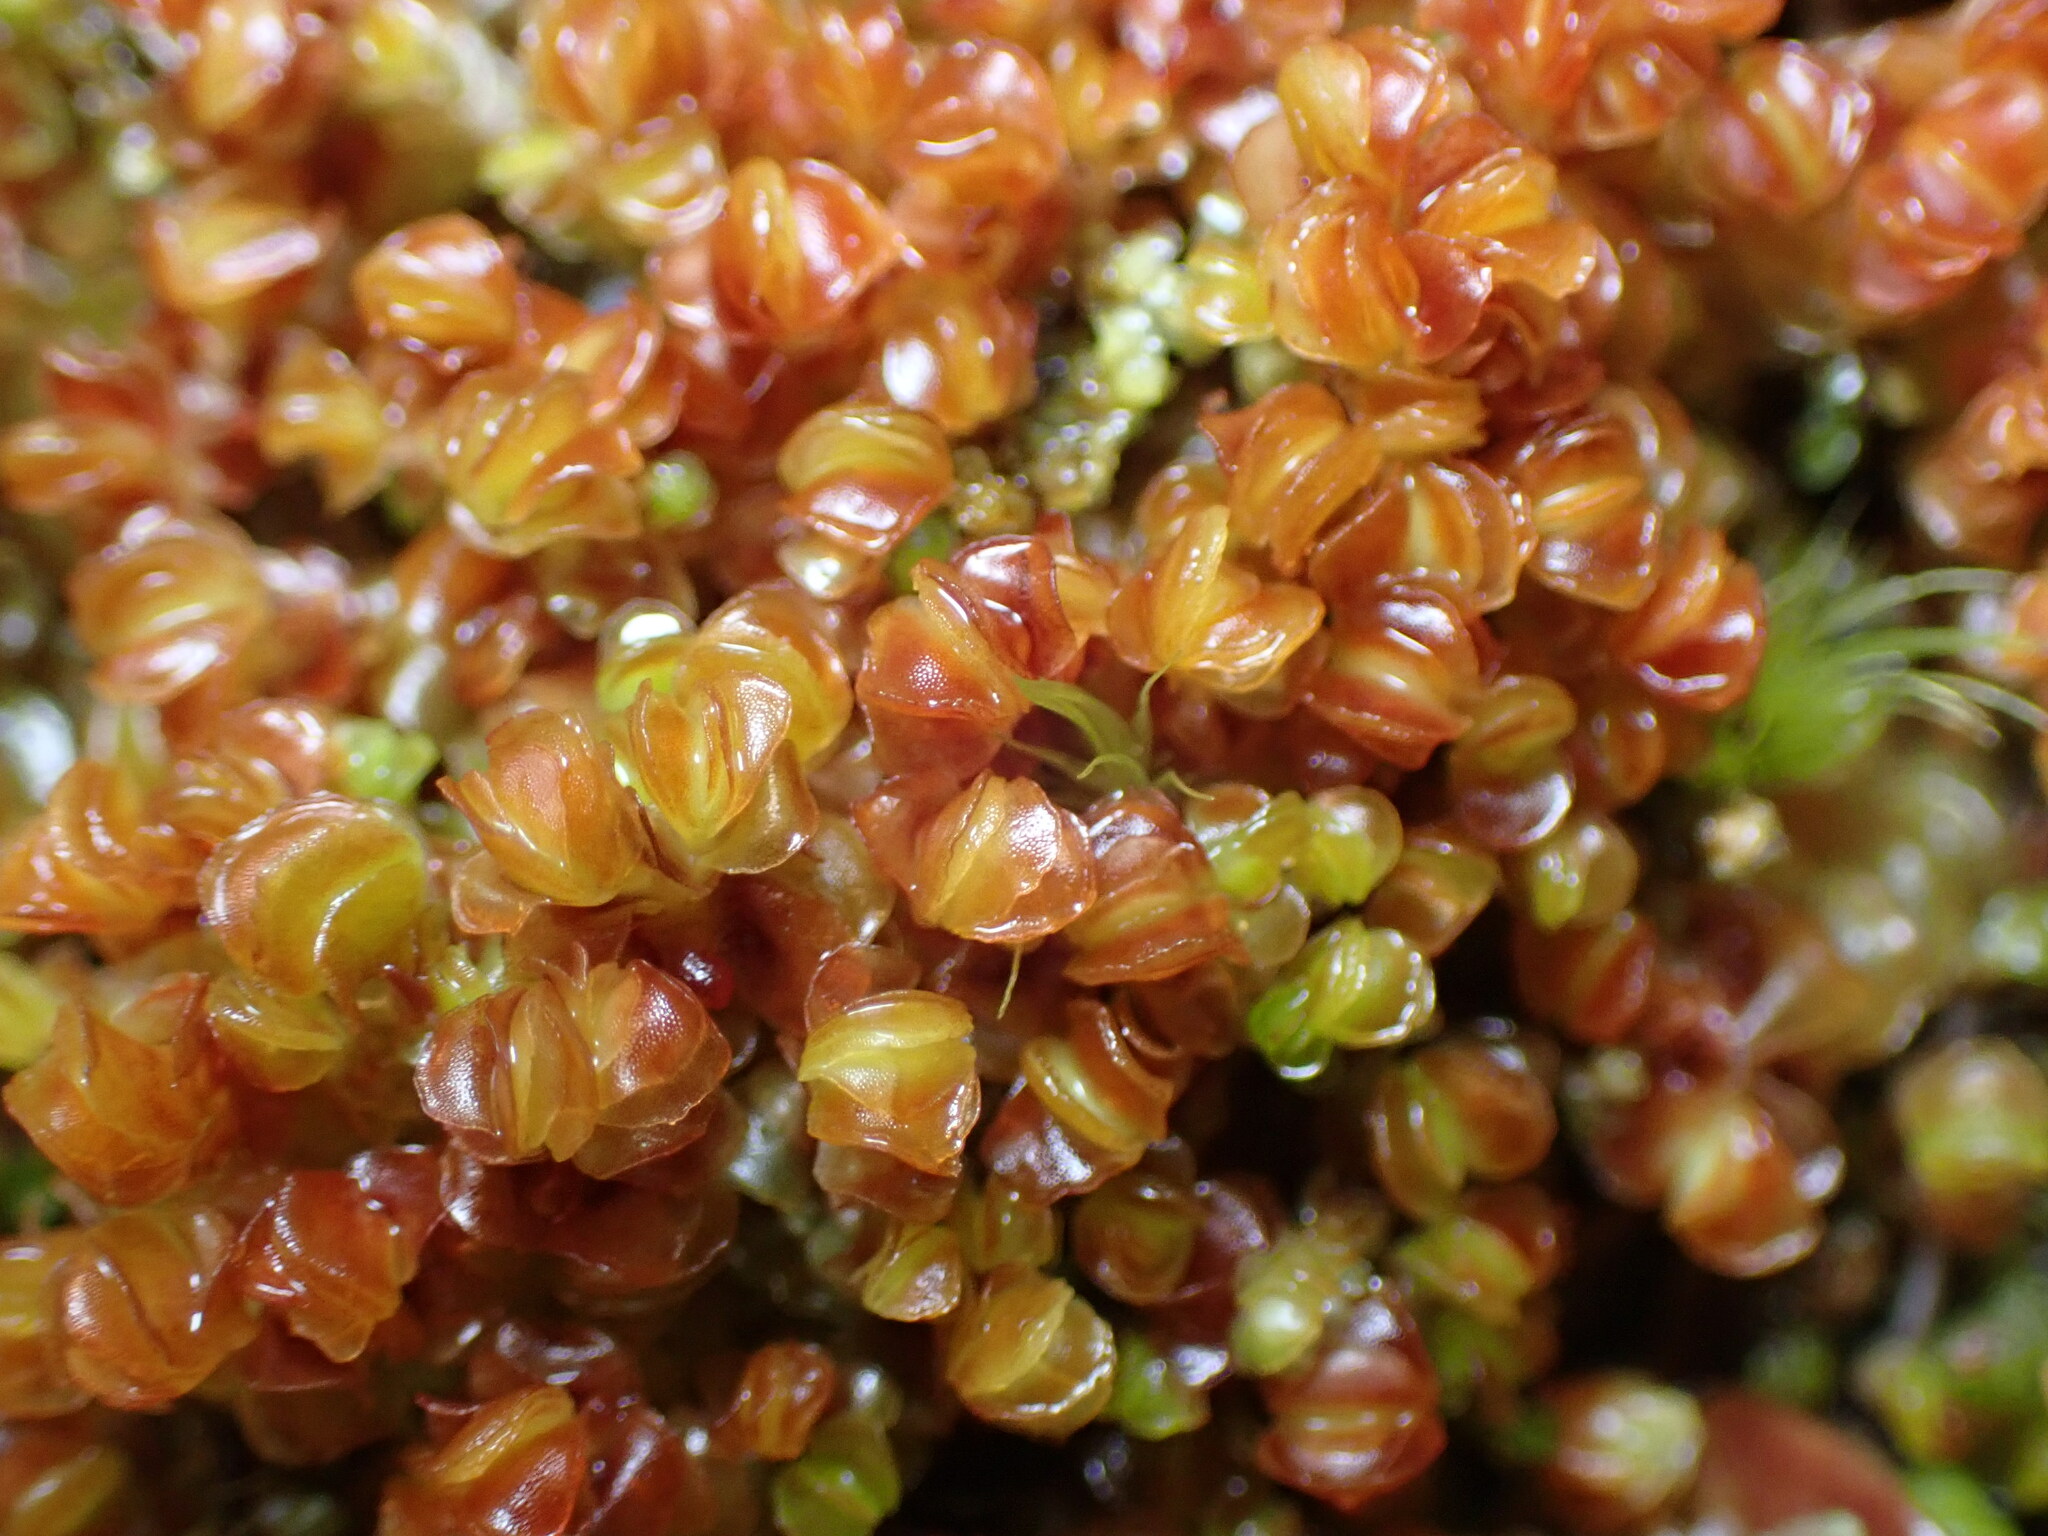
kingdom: Plantae
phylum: Marchantiophyta
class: Jungermanniopsida
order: Jungermanniales
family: Myliaceae
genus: Mylia
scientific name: Mylia taylorii
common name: Taylor s flapwort
